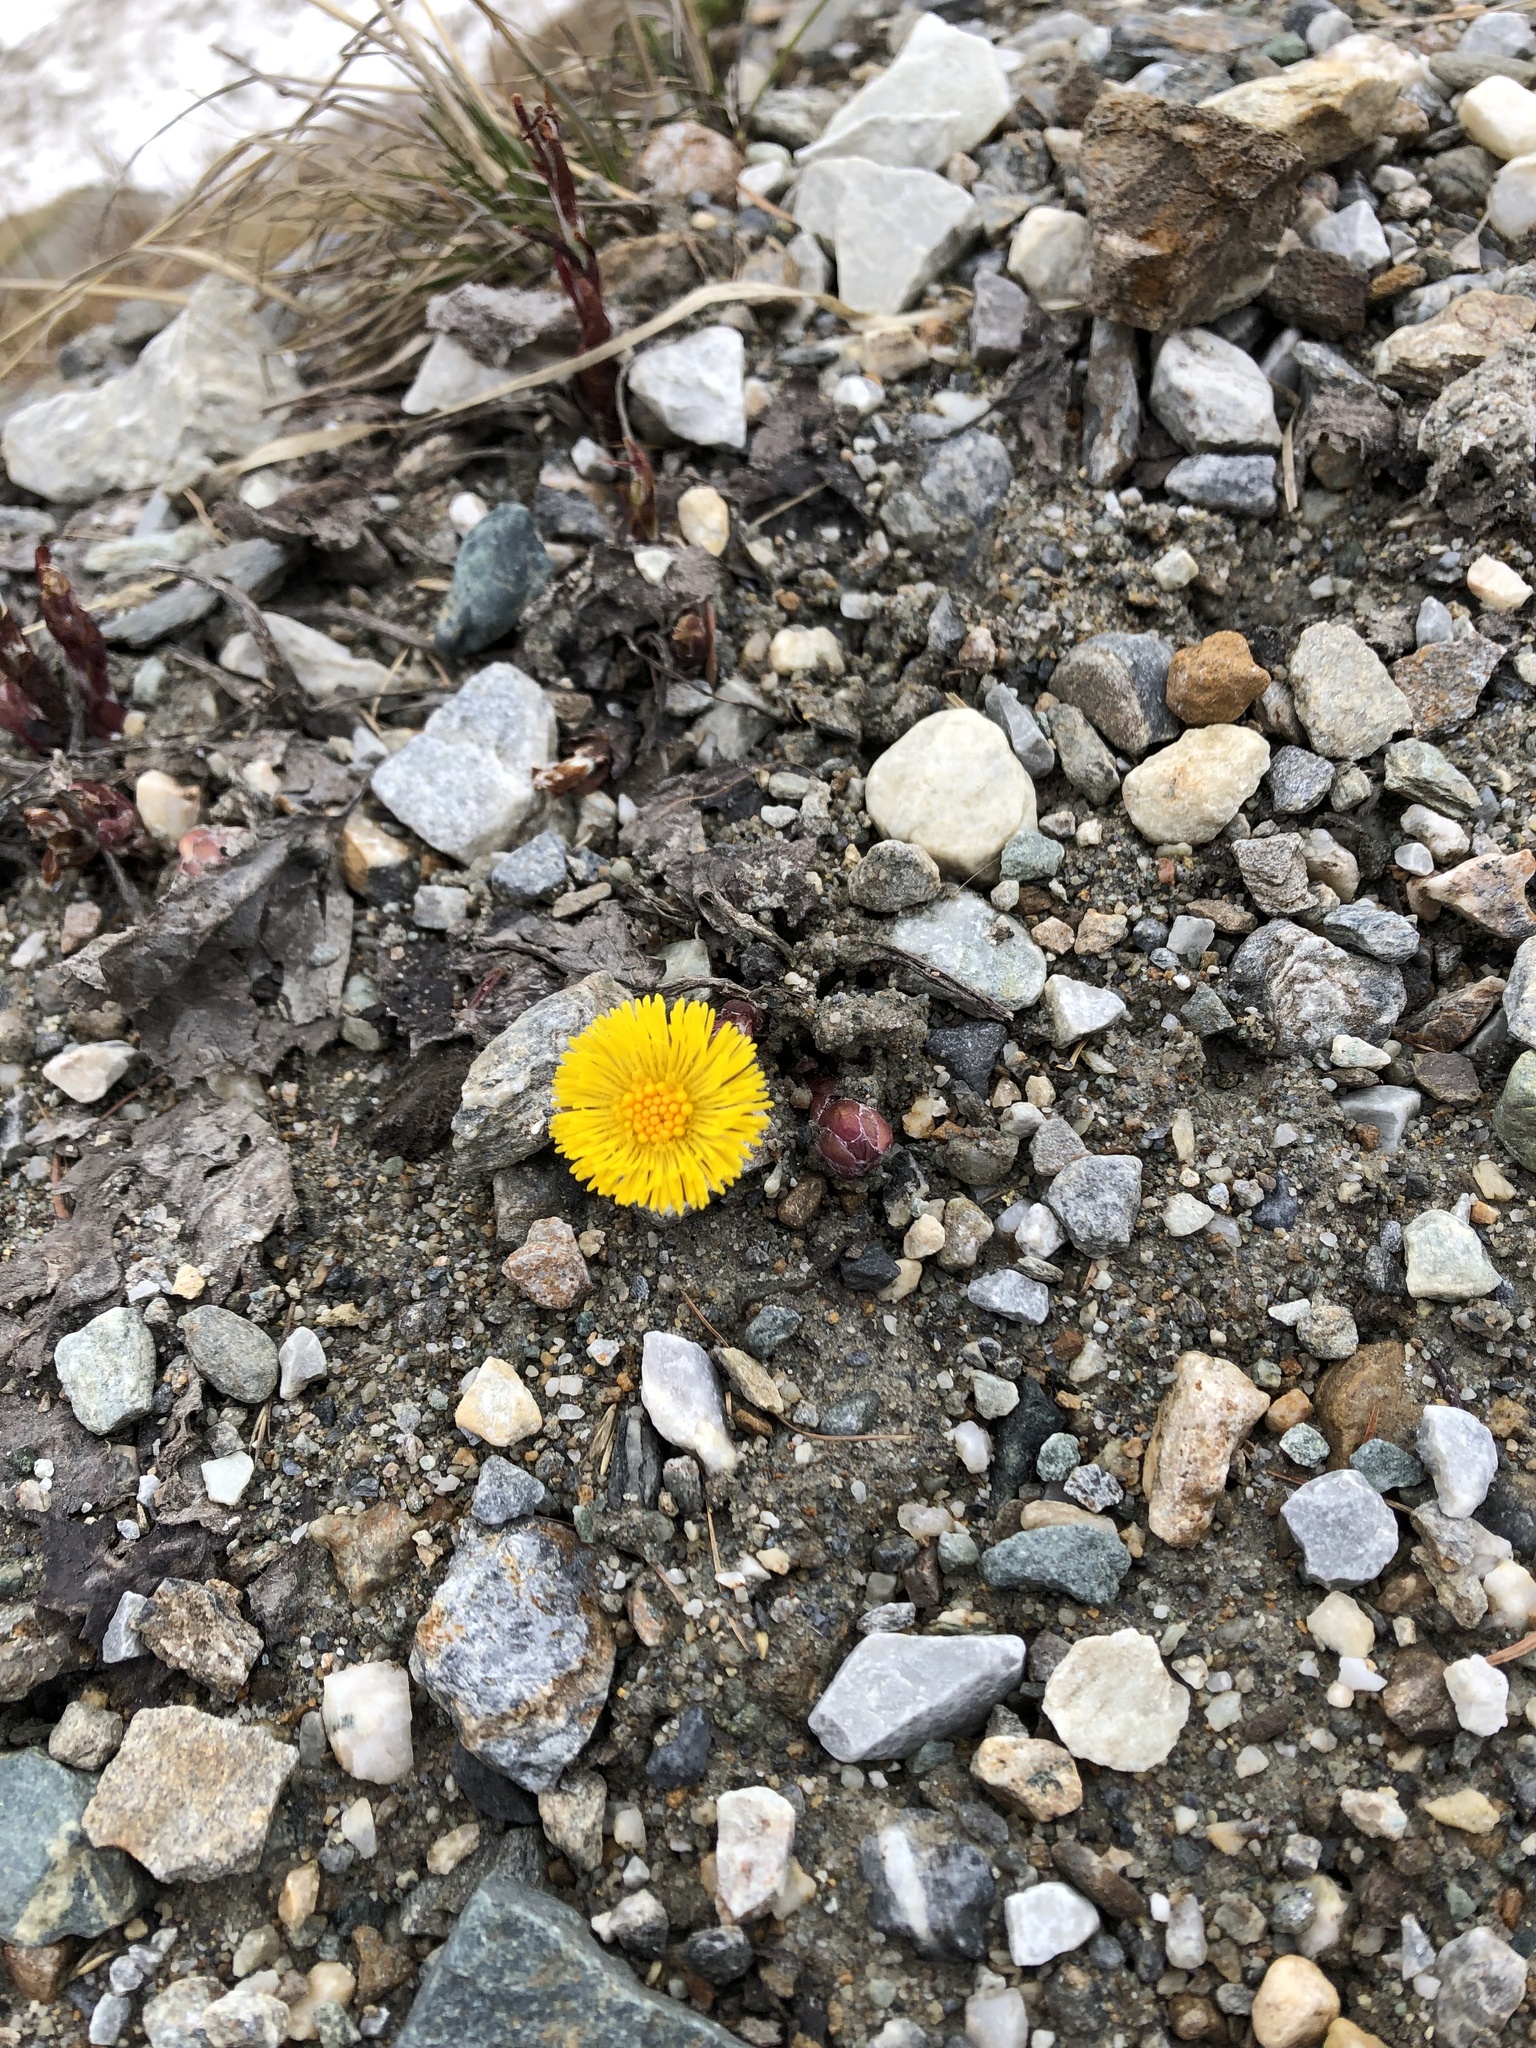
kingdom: Plantae
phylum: Tracheophyta
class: Magnoliopsida
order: Asterales
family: Asteraceae
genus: Tussilago
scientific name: Tussilago farfara
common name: Coltsfoot
